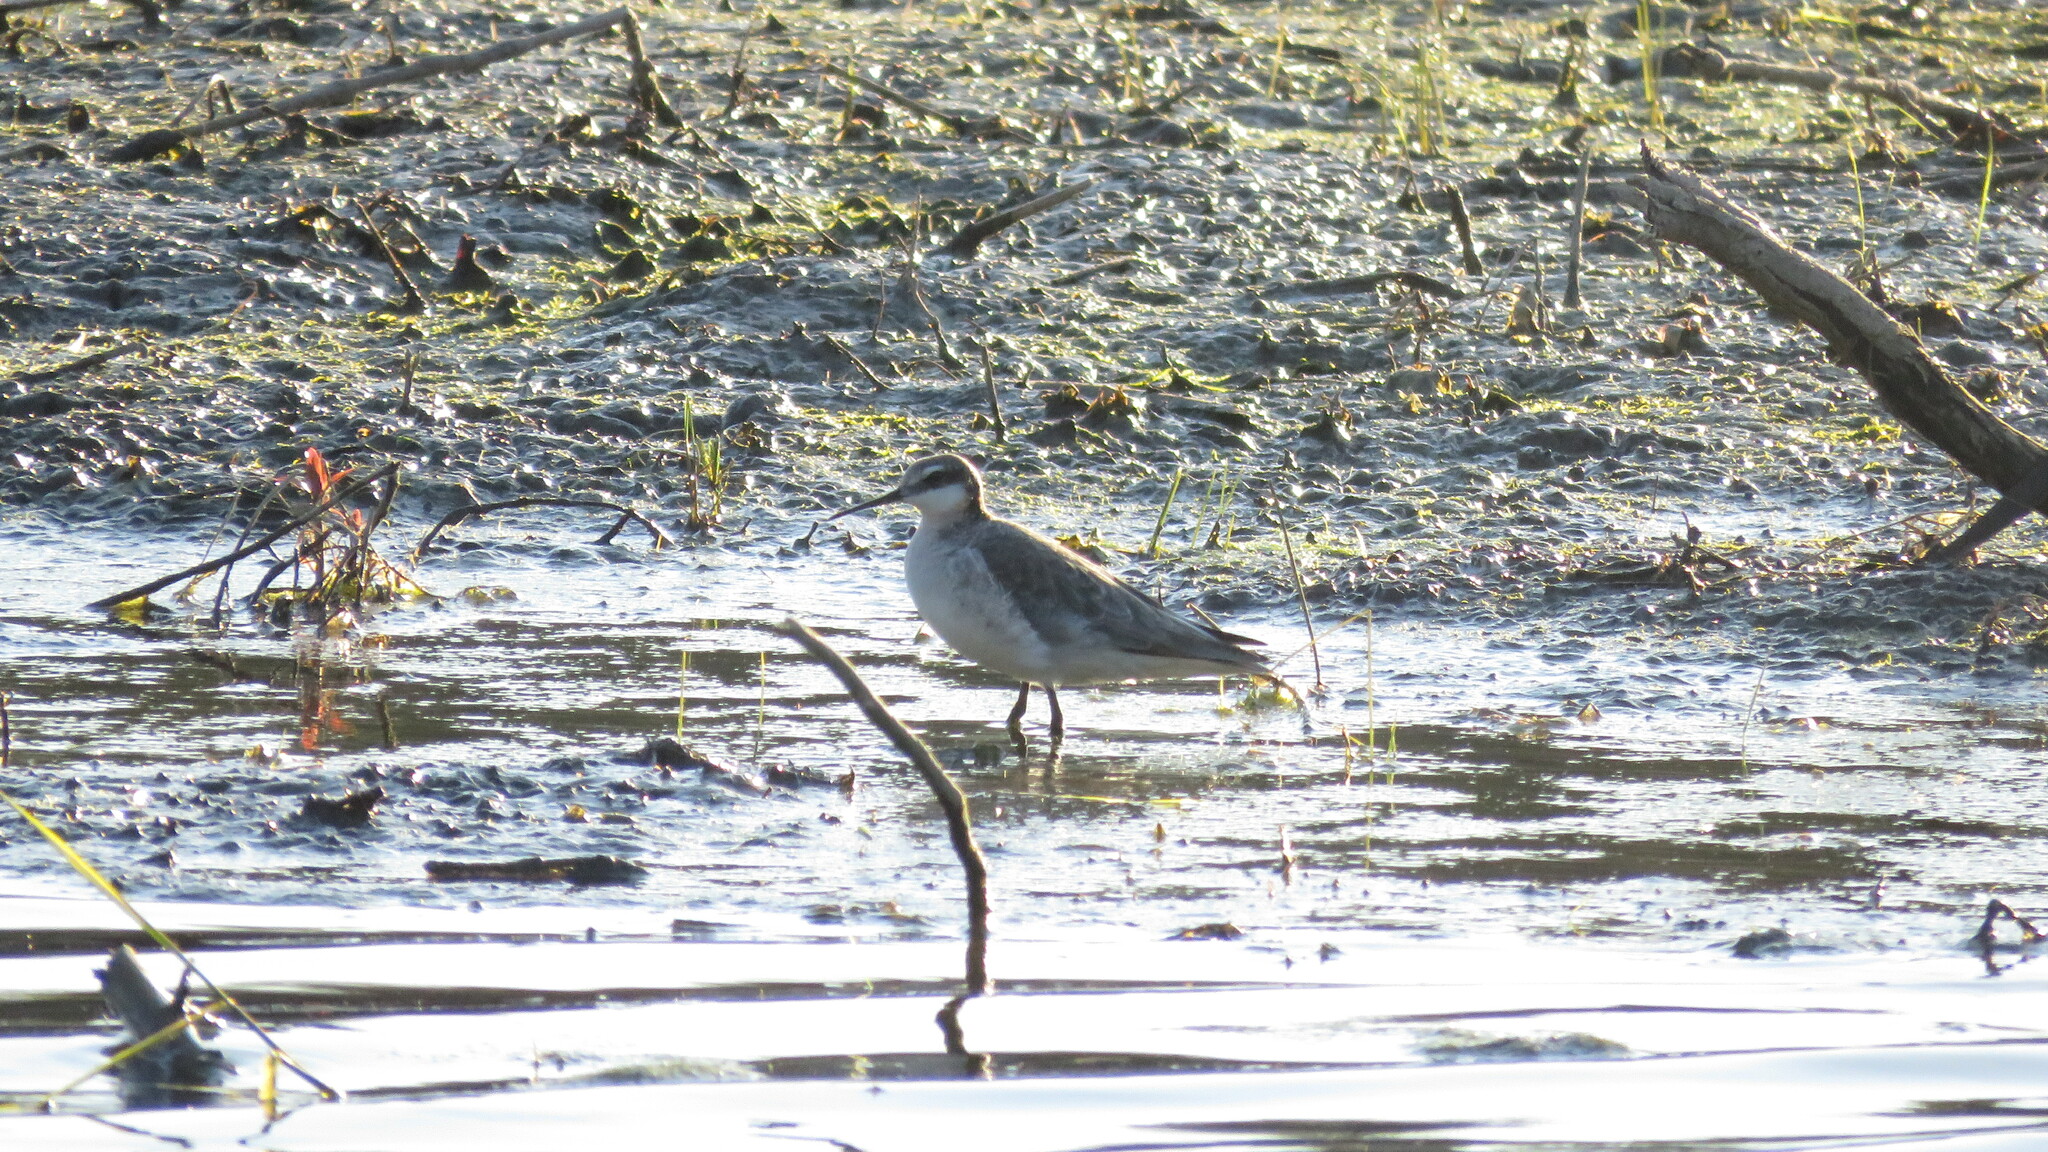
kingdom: Animalia
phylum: Chordata
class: Aves
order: Charadriiformes
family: Scolopacidae
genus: Phalaropus
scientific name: Phalaropus tricolor
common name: Wilson's phalarope
